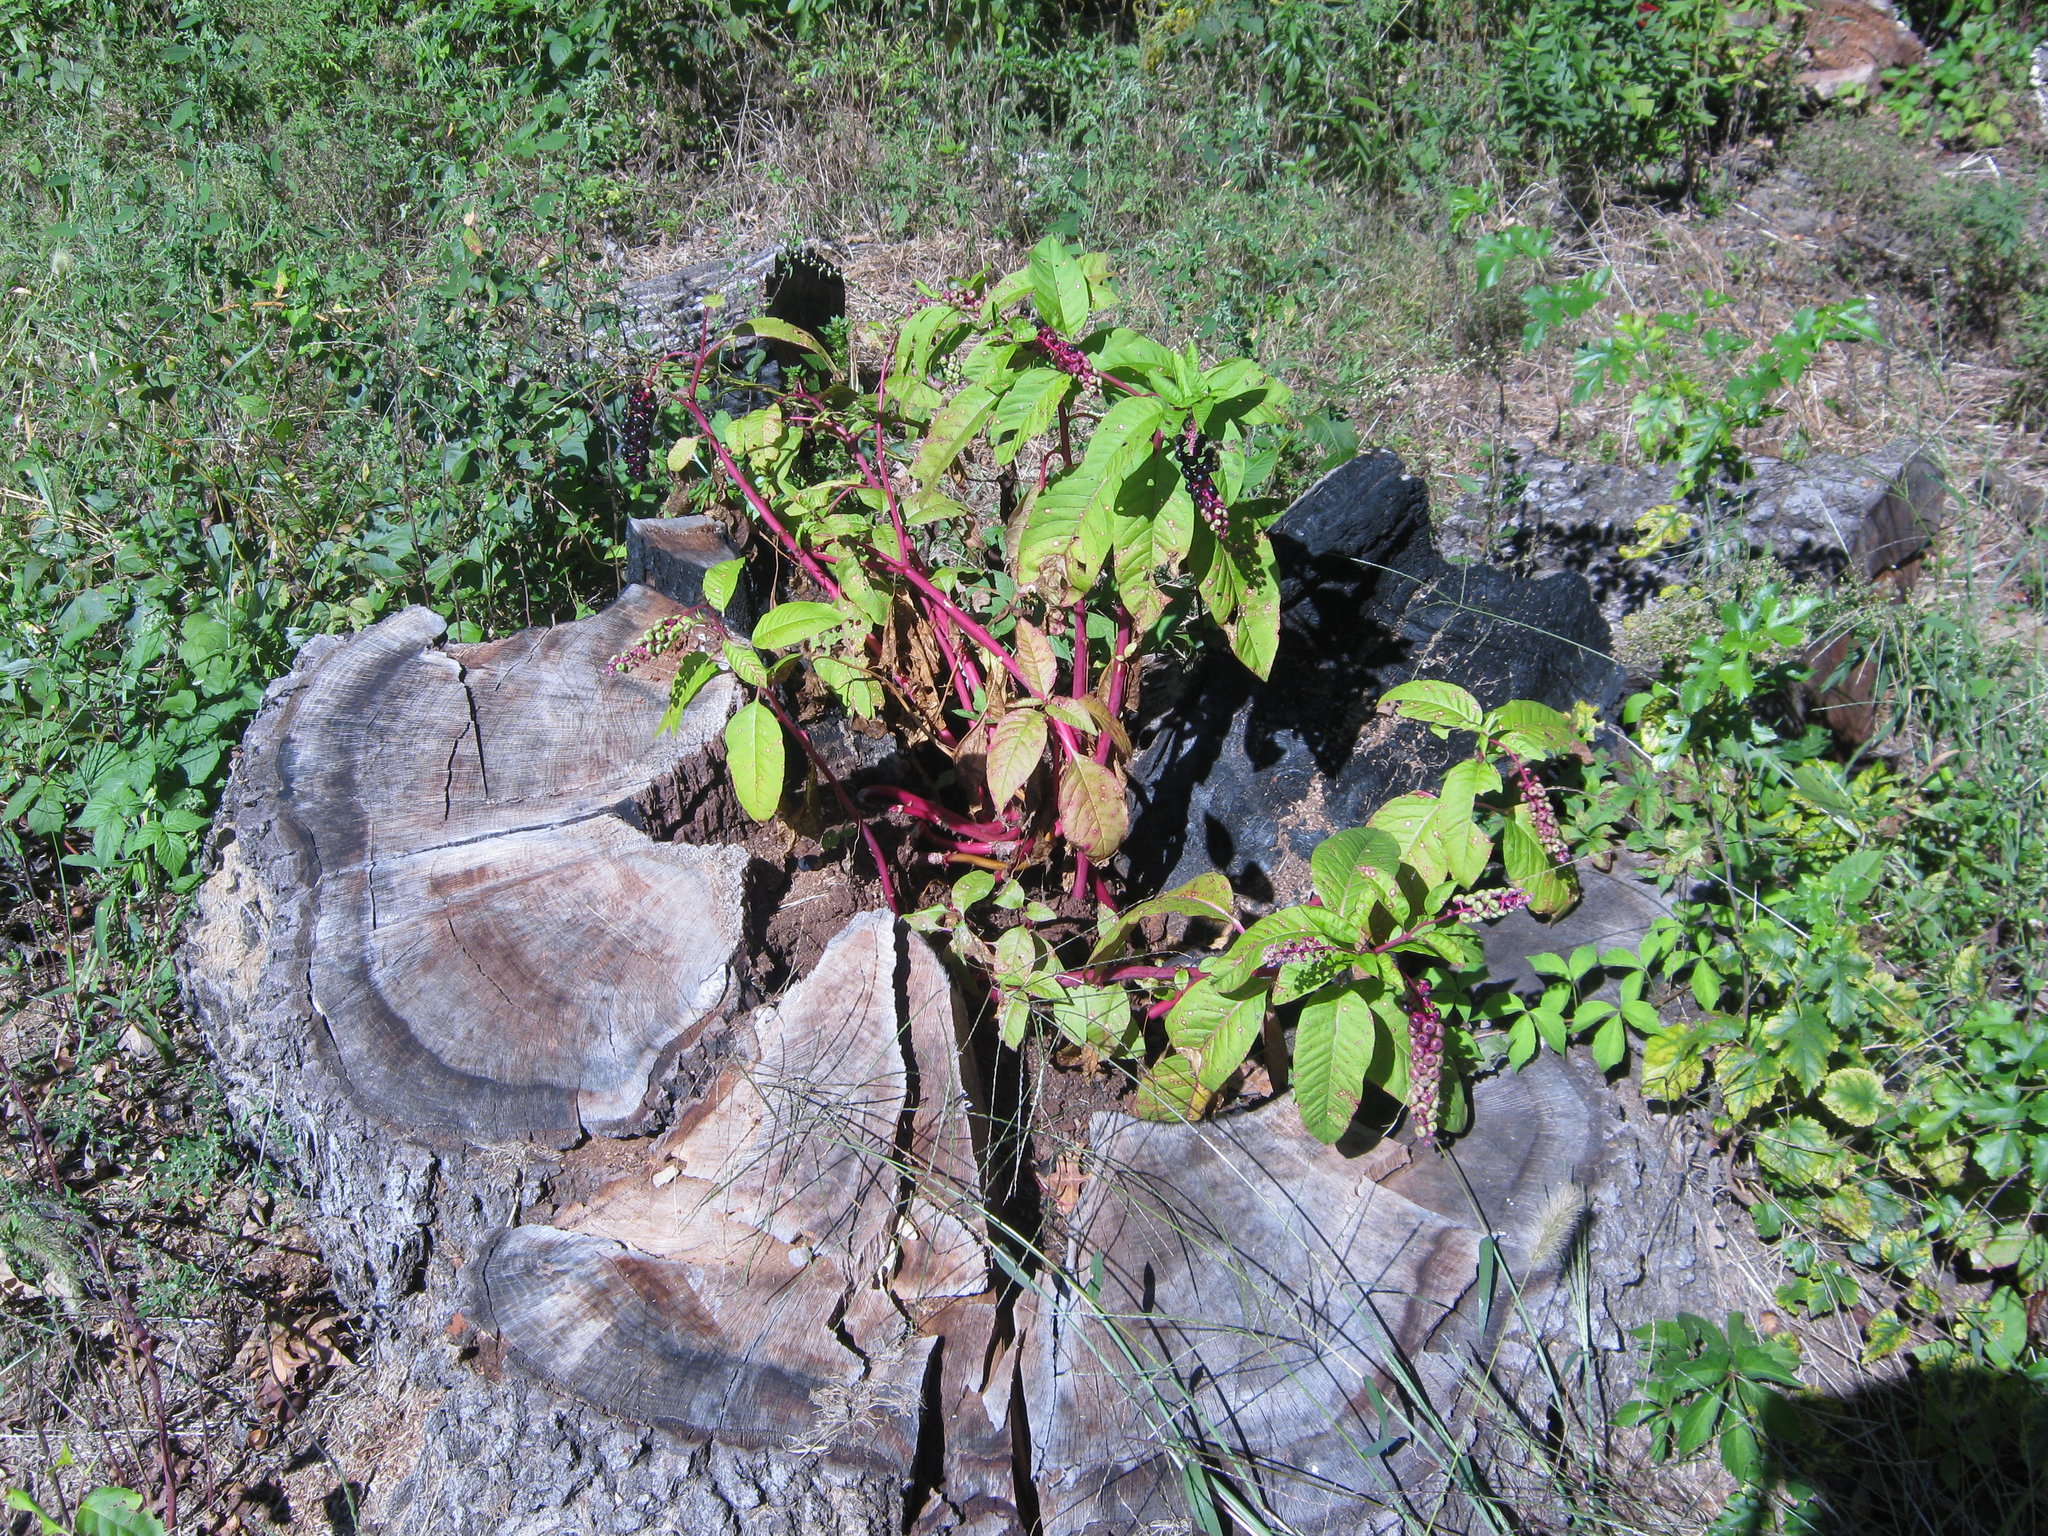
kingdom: Plantae
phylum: Tracheophyta
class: Magnoliopsida
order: Caryophyllales
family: Phytolaccaceae
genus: Phytolacca
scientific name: Phytolacca americana
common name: American pokeweed
